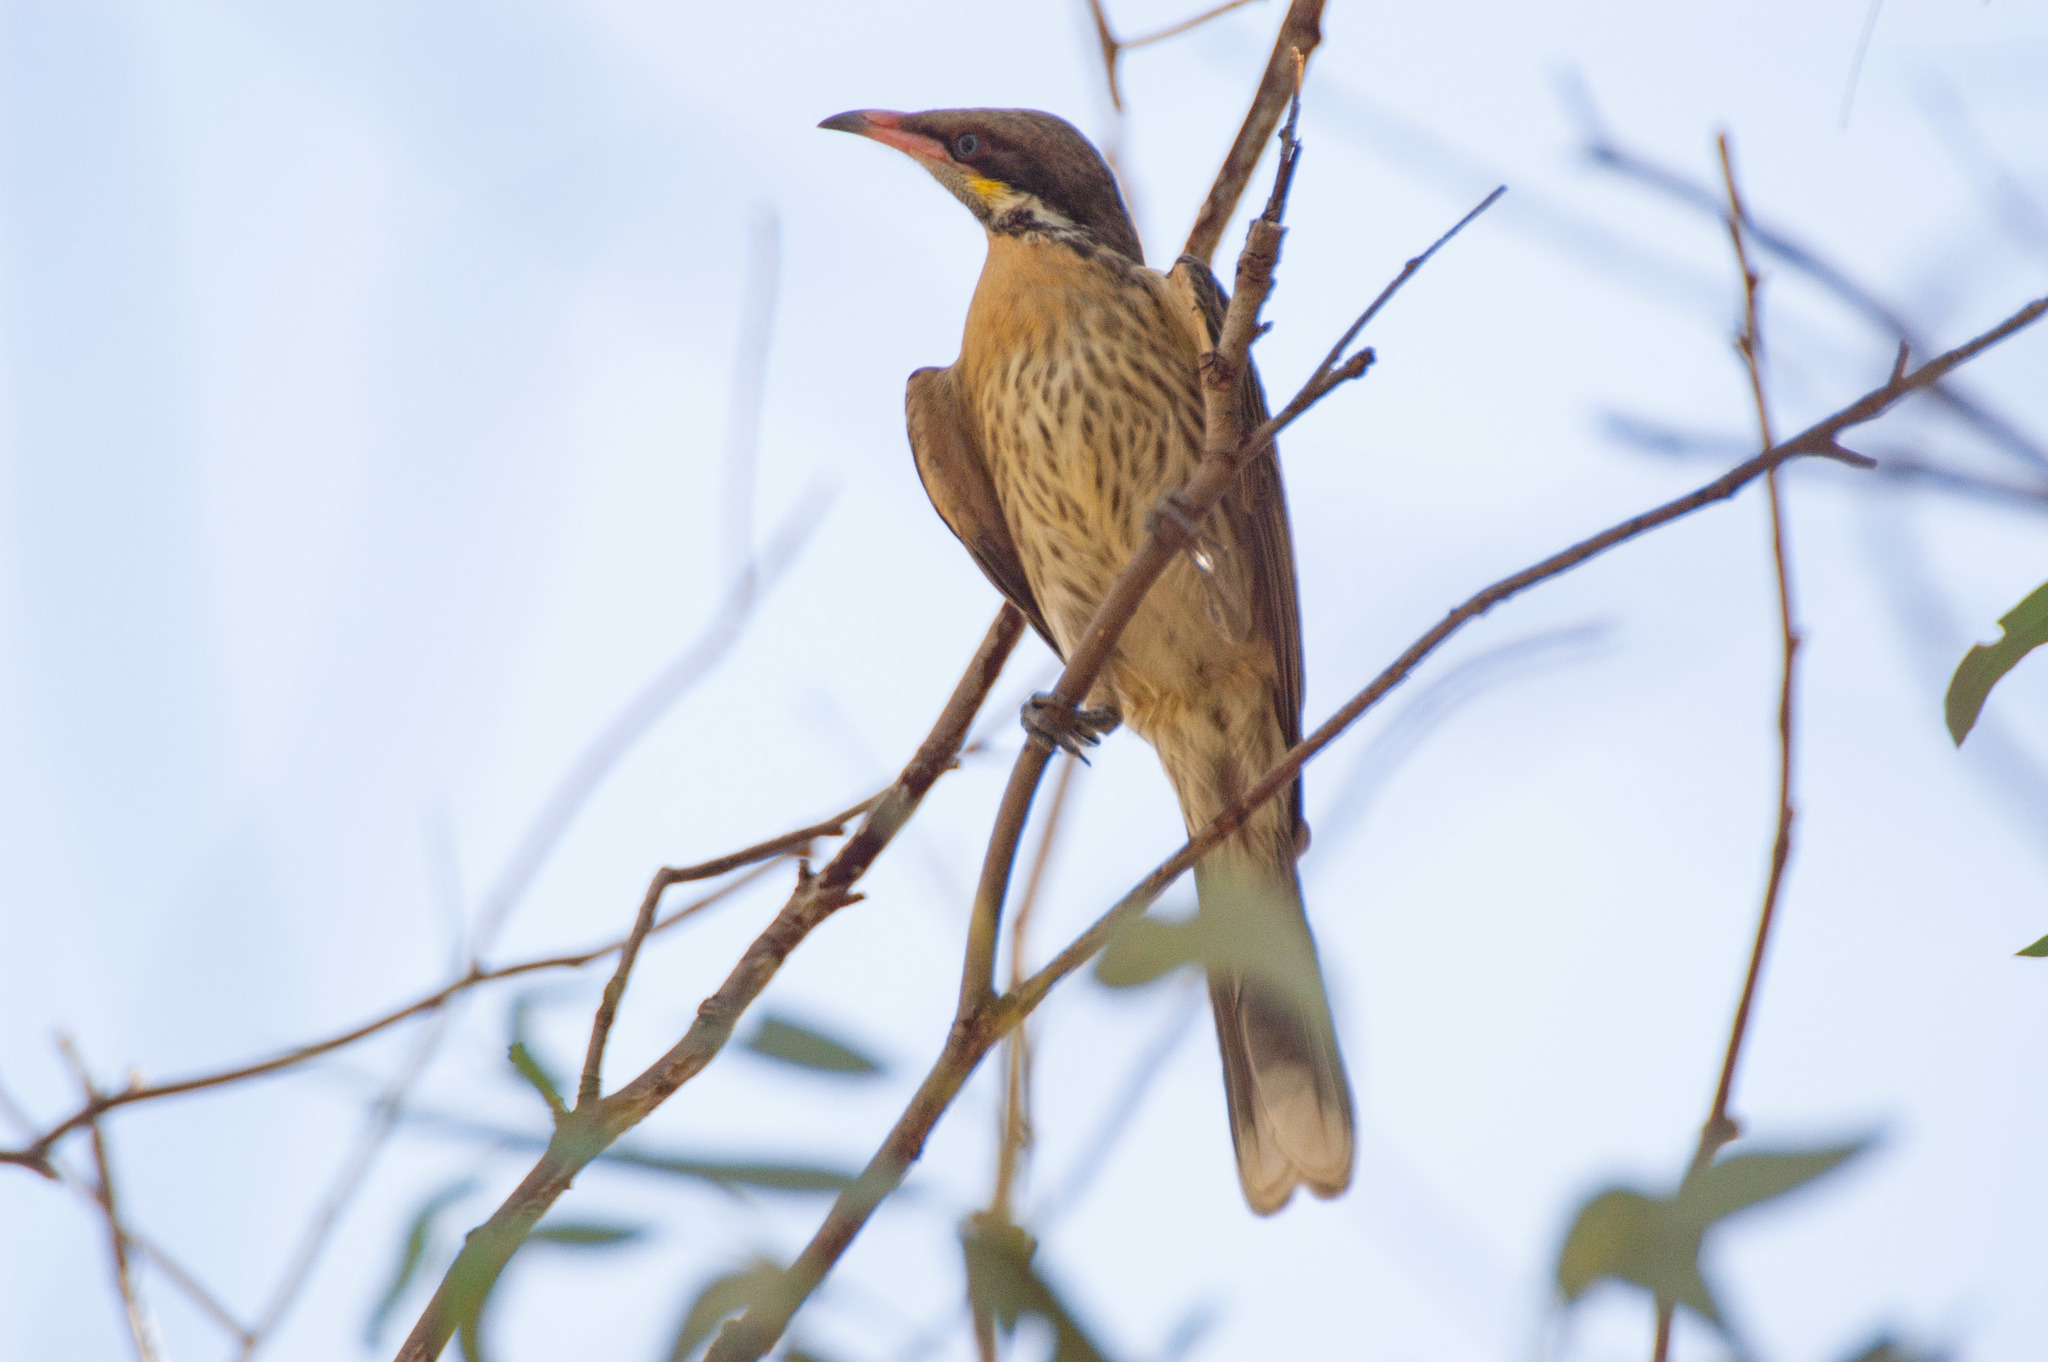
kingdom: Animalia
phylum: Chordata
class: Aves
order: Passeriformes
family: Meliphagidae
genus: Acanthagenys
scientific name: Acanthagenys rufogularis
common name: Spiny-cheeked honeyeater
